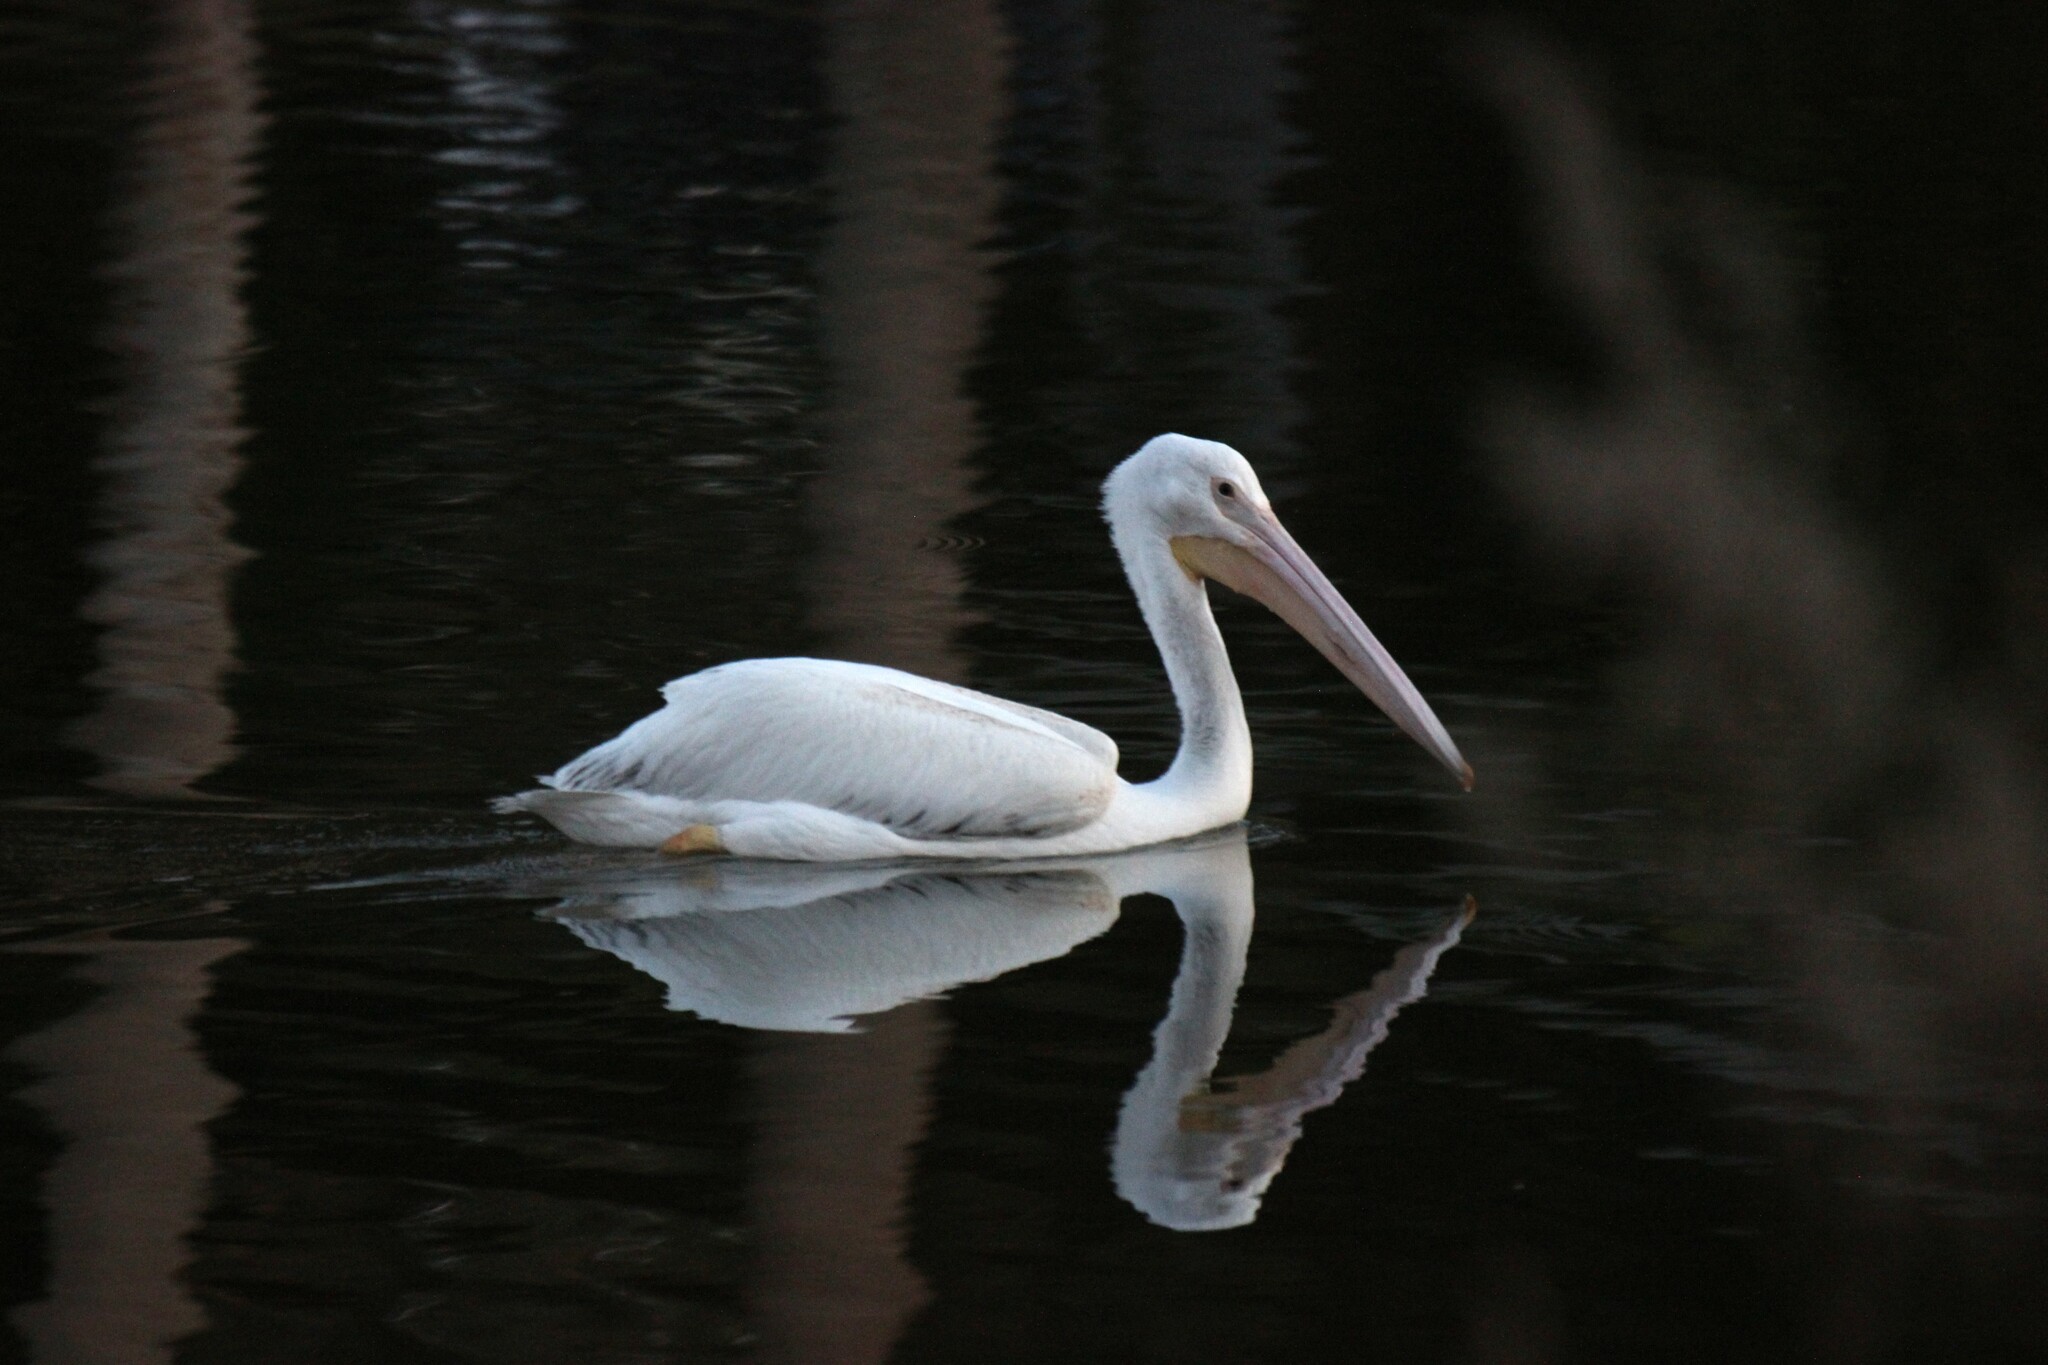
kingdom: Animalia
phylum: Chordata
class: Aves
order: Pelecaniformes
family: Pelecanidae
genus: Pelecanus
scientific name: Pelecanus erythrorhynchos
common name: American white pelican
